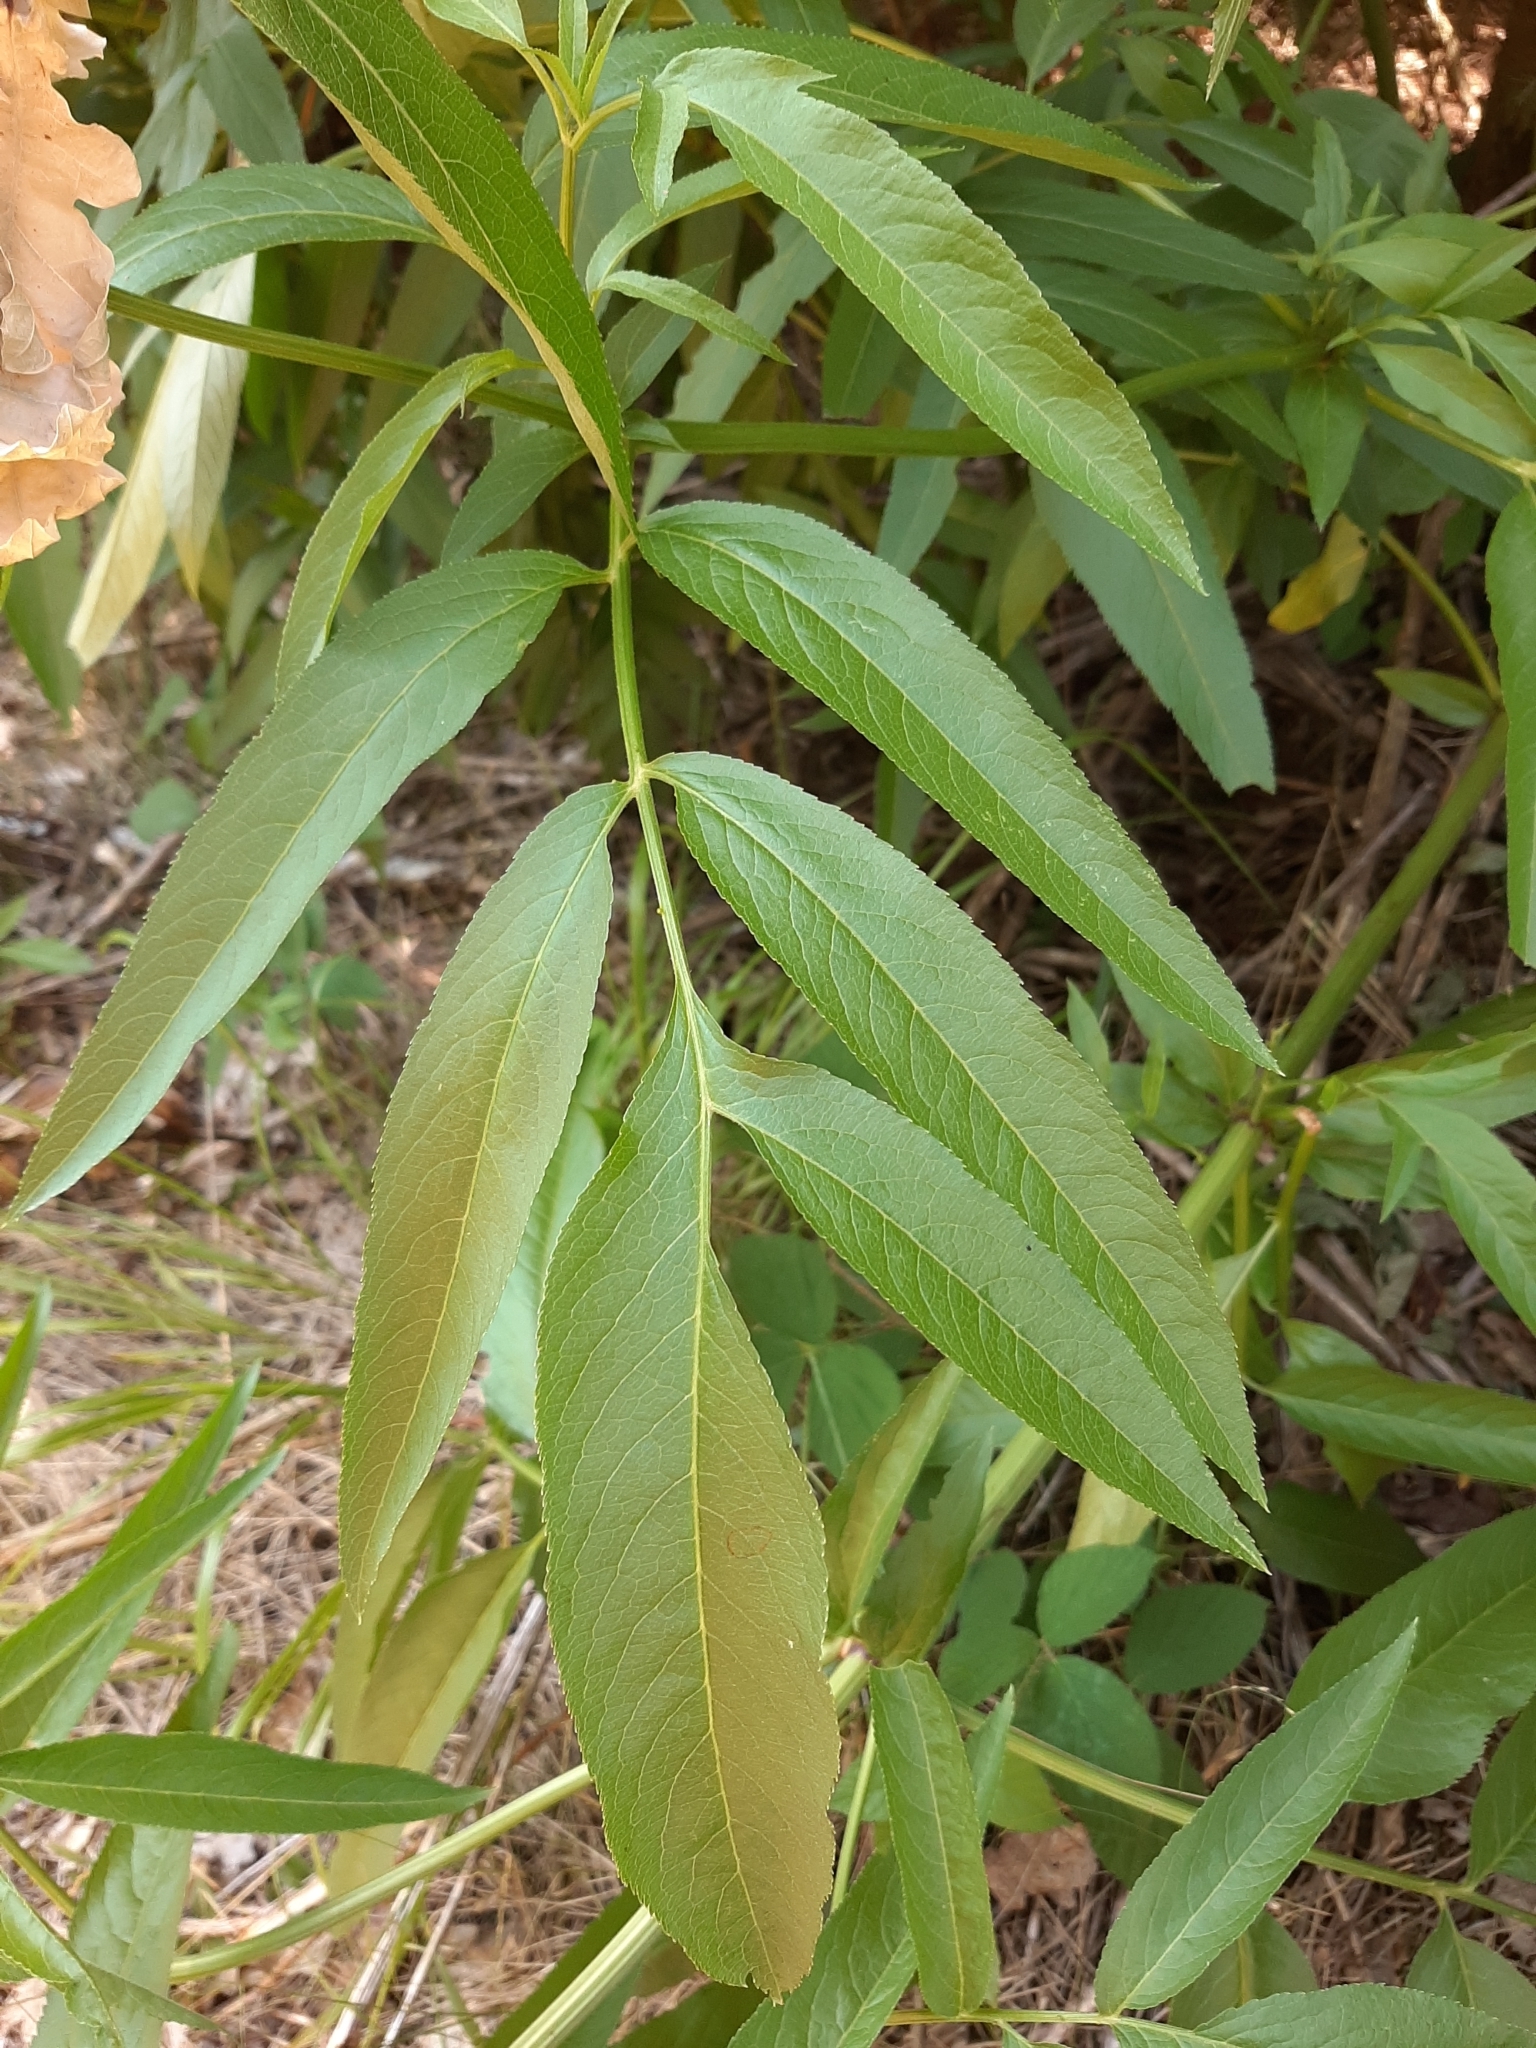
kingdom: Plantae
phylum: Tracheophyta
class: Magnoliopsida
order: Dipsacales
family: Viburnaceae
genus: Sambucus
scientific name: Sambucus ebulus
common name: Dwarf elder
